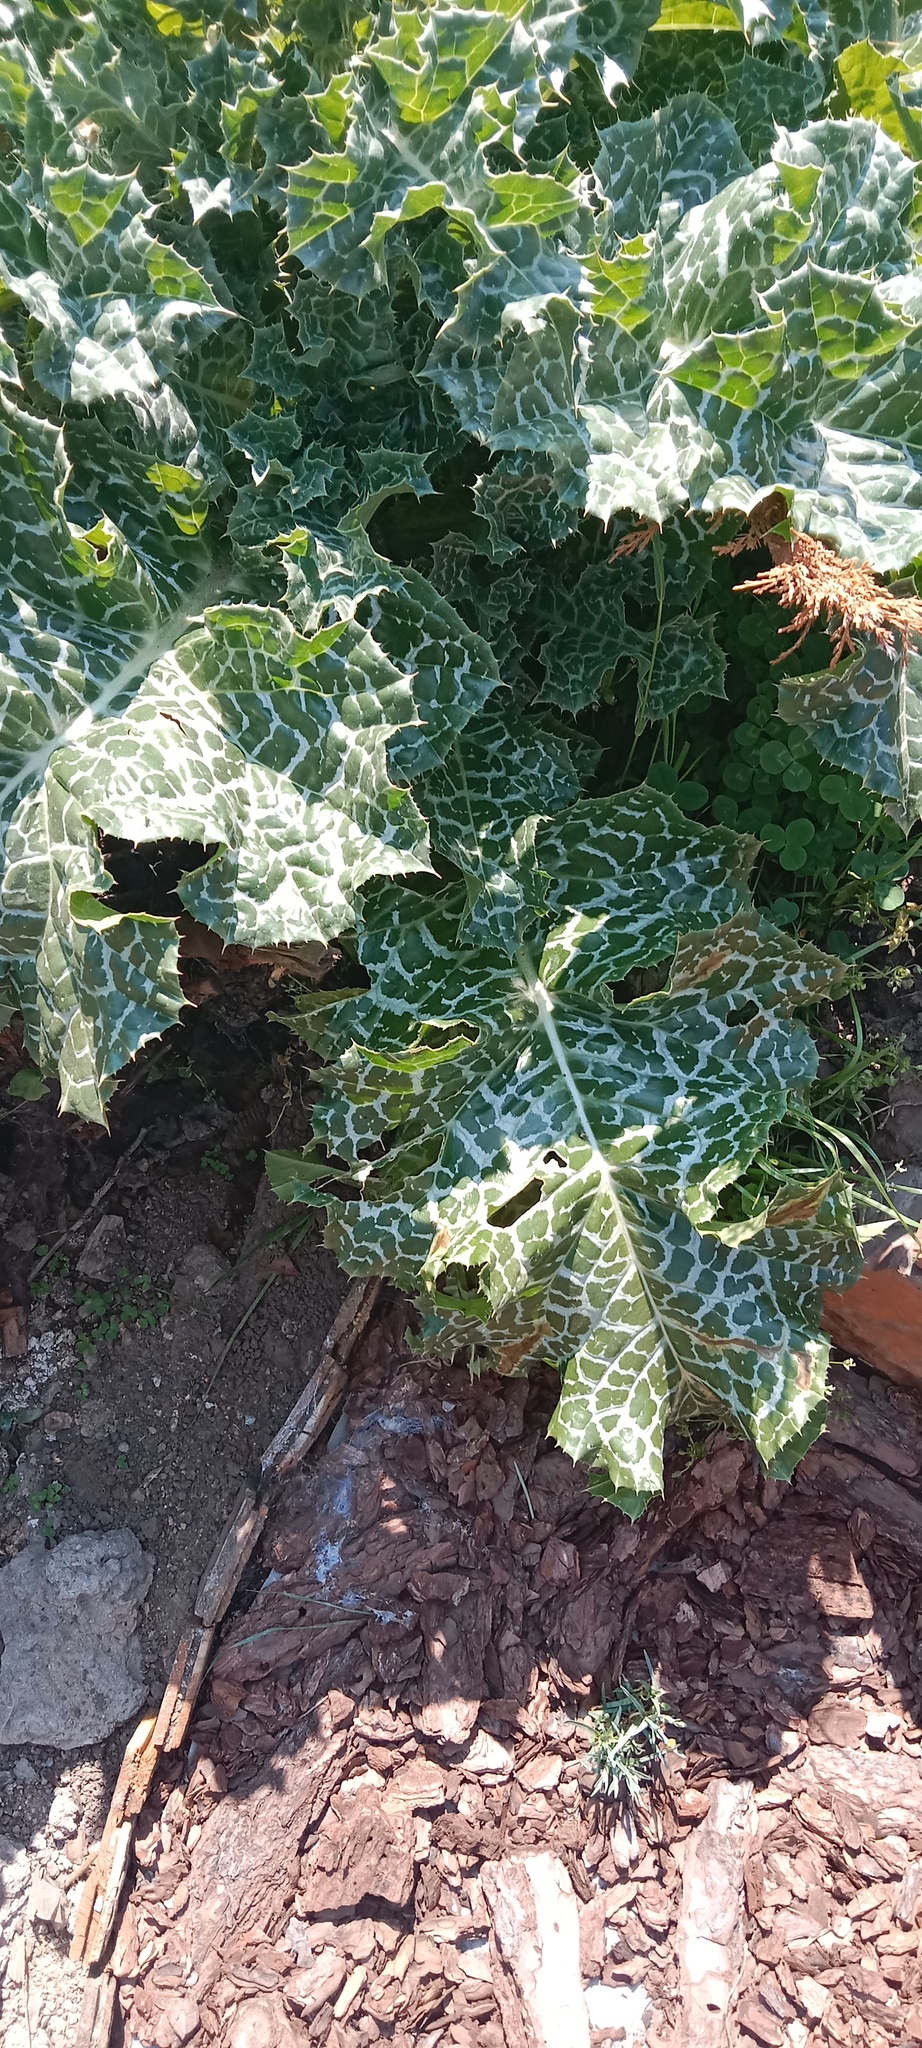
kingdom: Plantae
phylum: Tracheophyta
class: Magnoliopsida
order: Asterales
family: Asteraceae
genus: Silybum
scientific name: Silybum marianum
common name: Milk thistle
